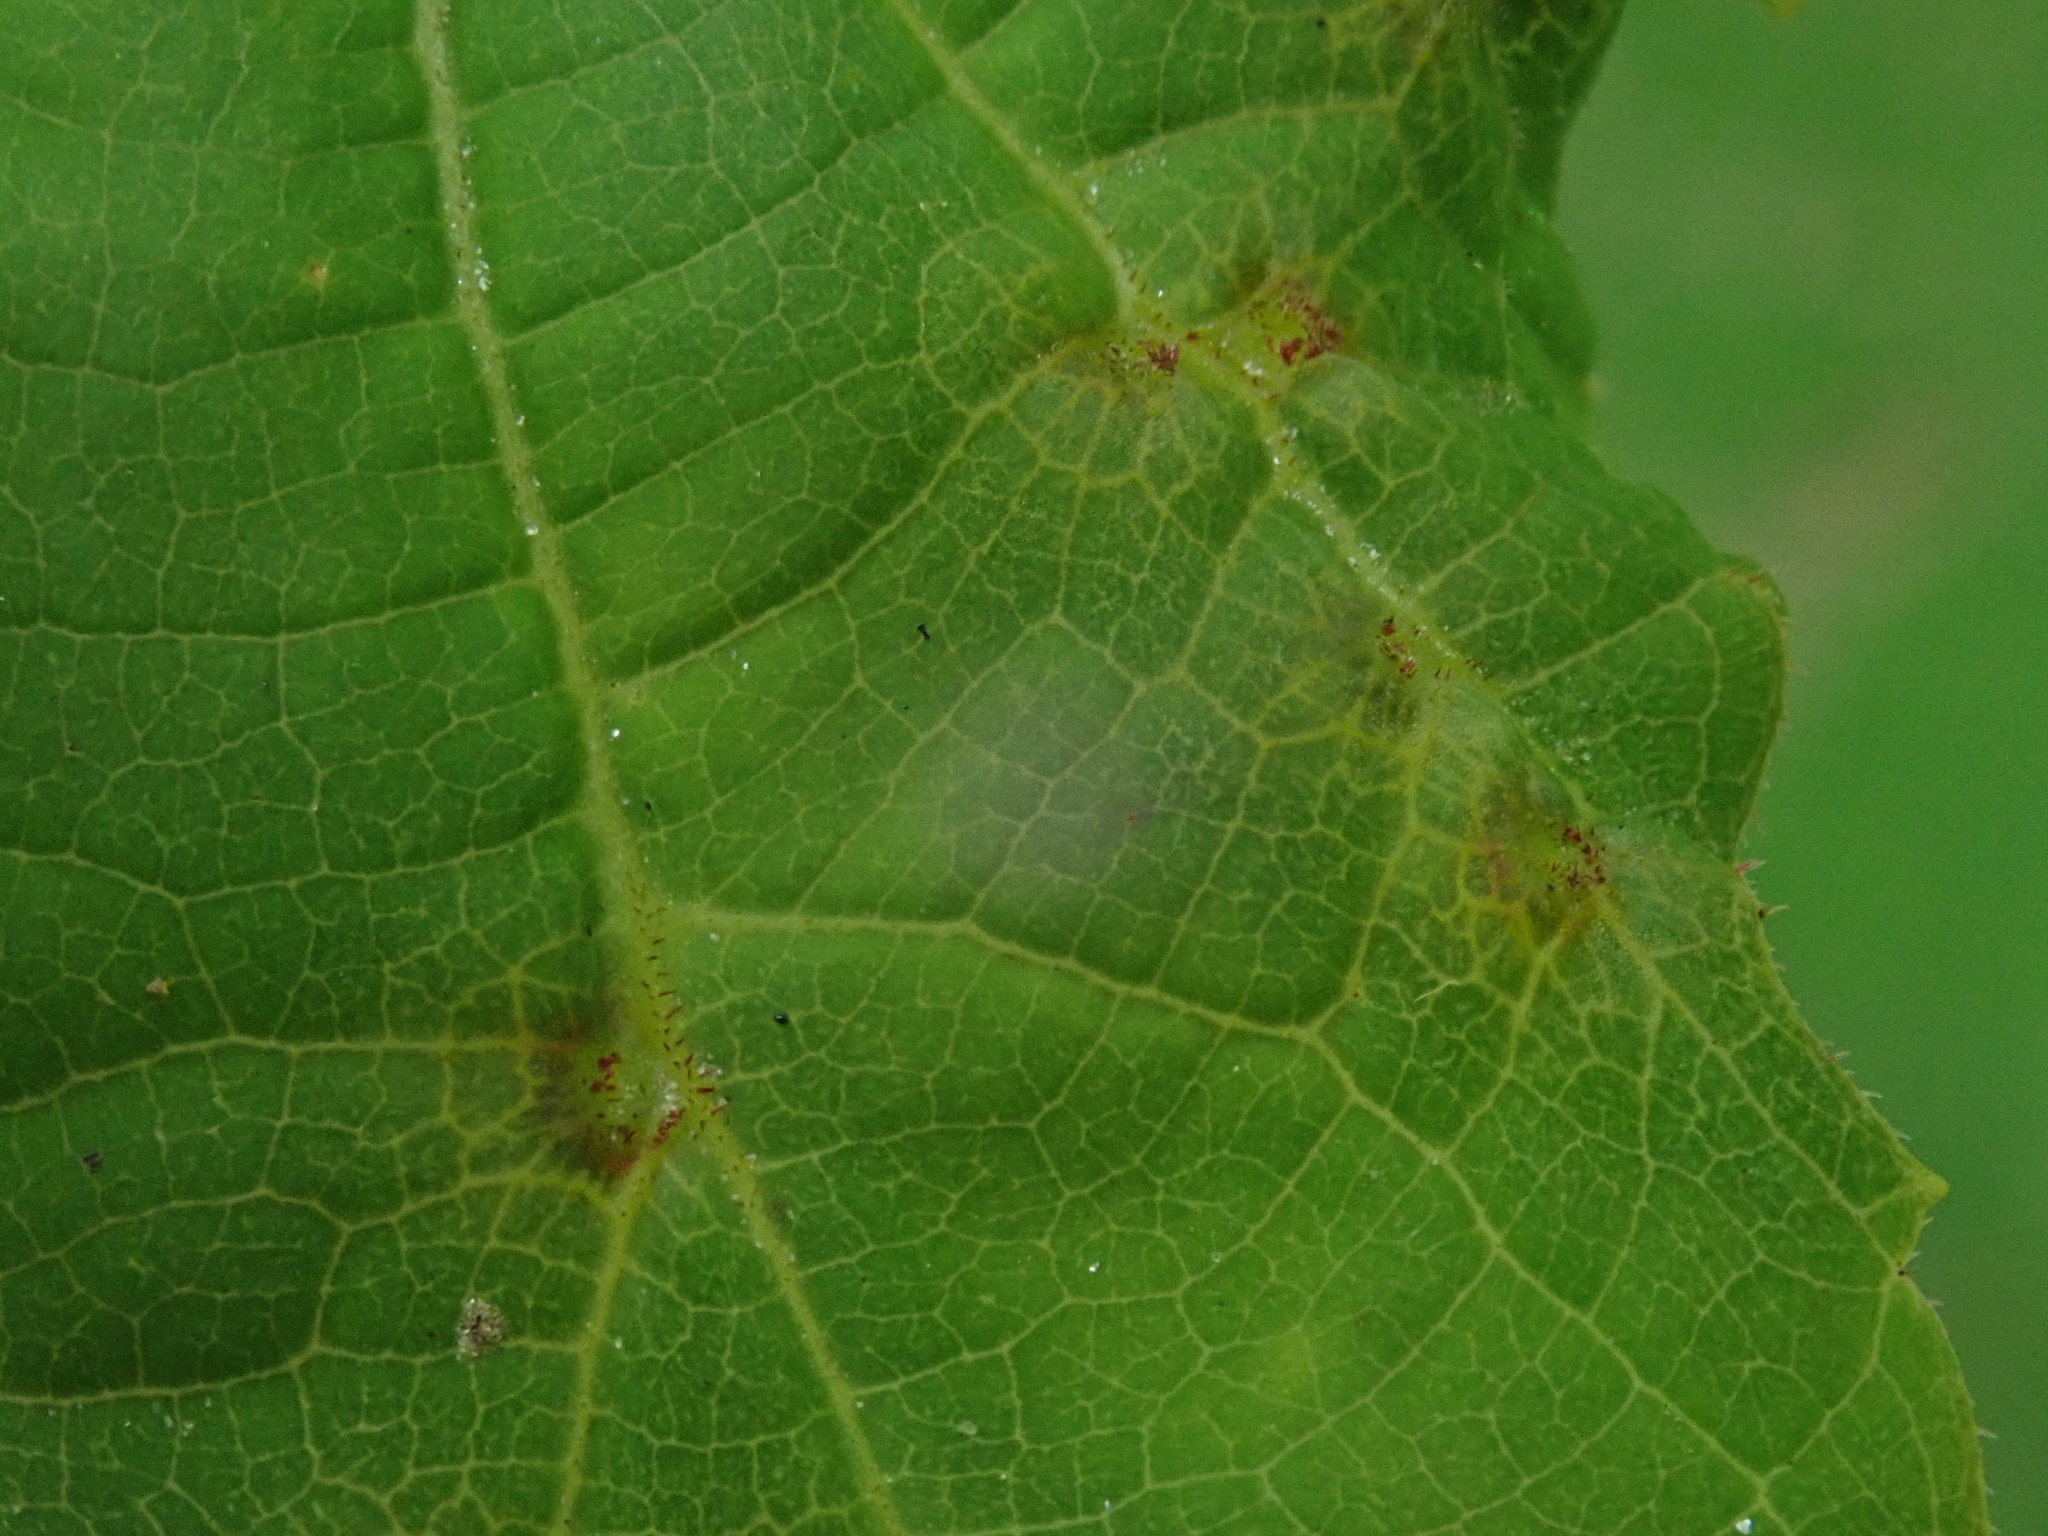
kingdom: Animalia
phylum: Arthropoda
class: Insecta
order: Diptera
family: Cecidomyiidae
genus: Ampelomyia
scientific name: Ampelomyia viticola
